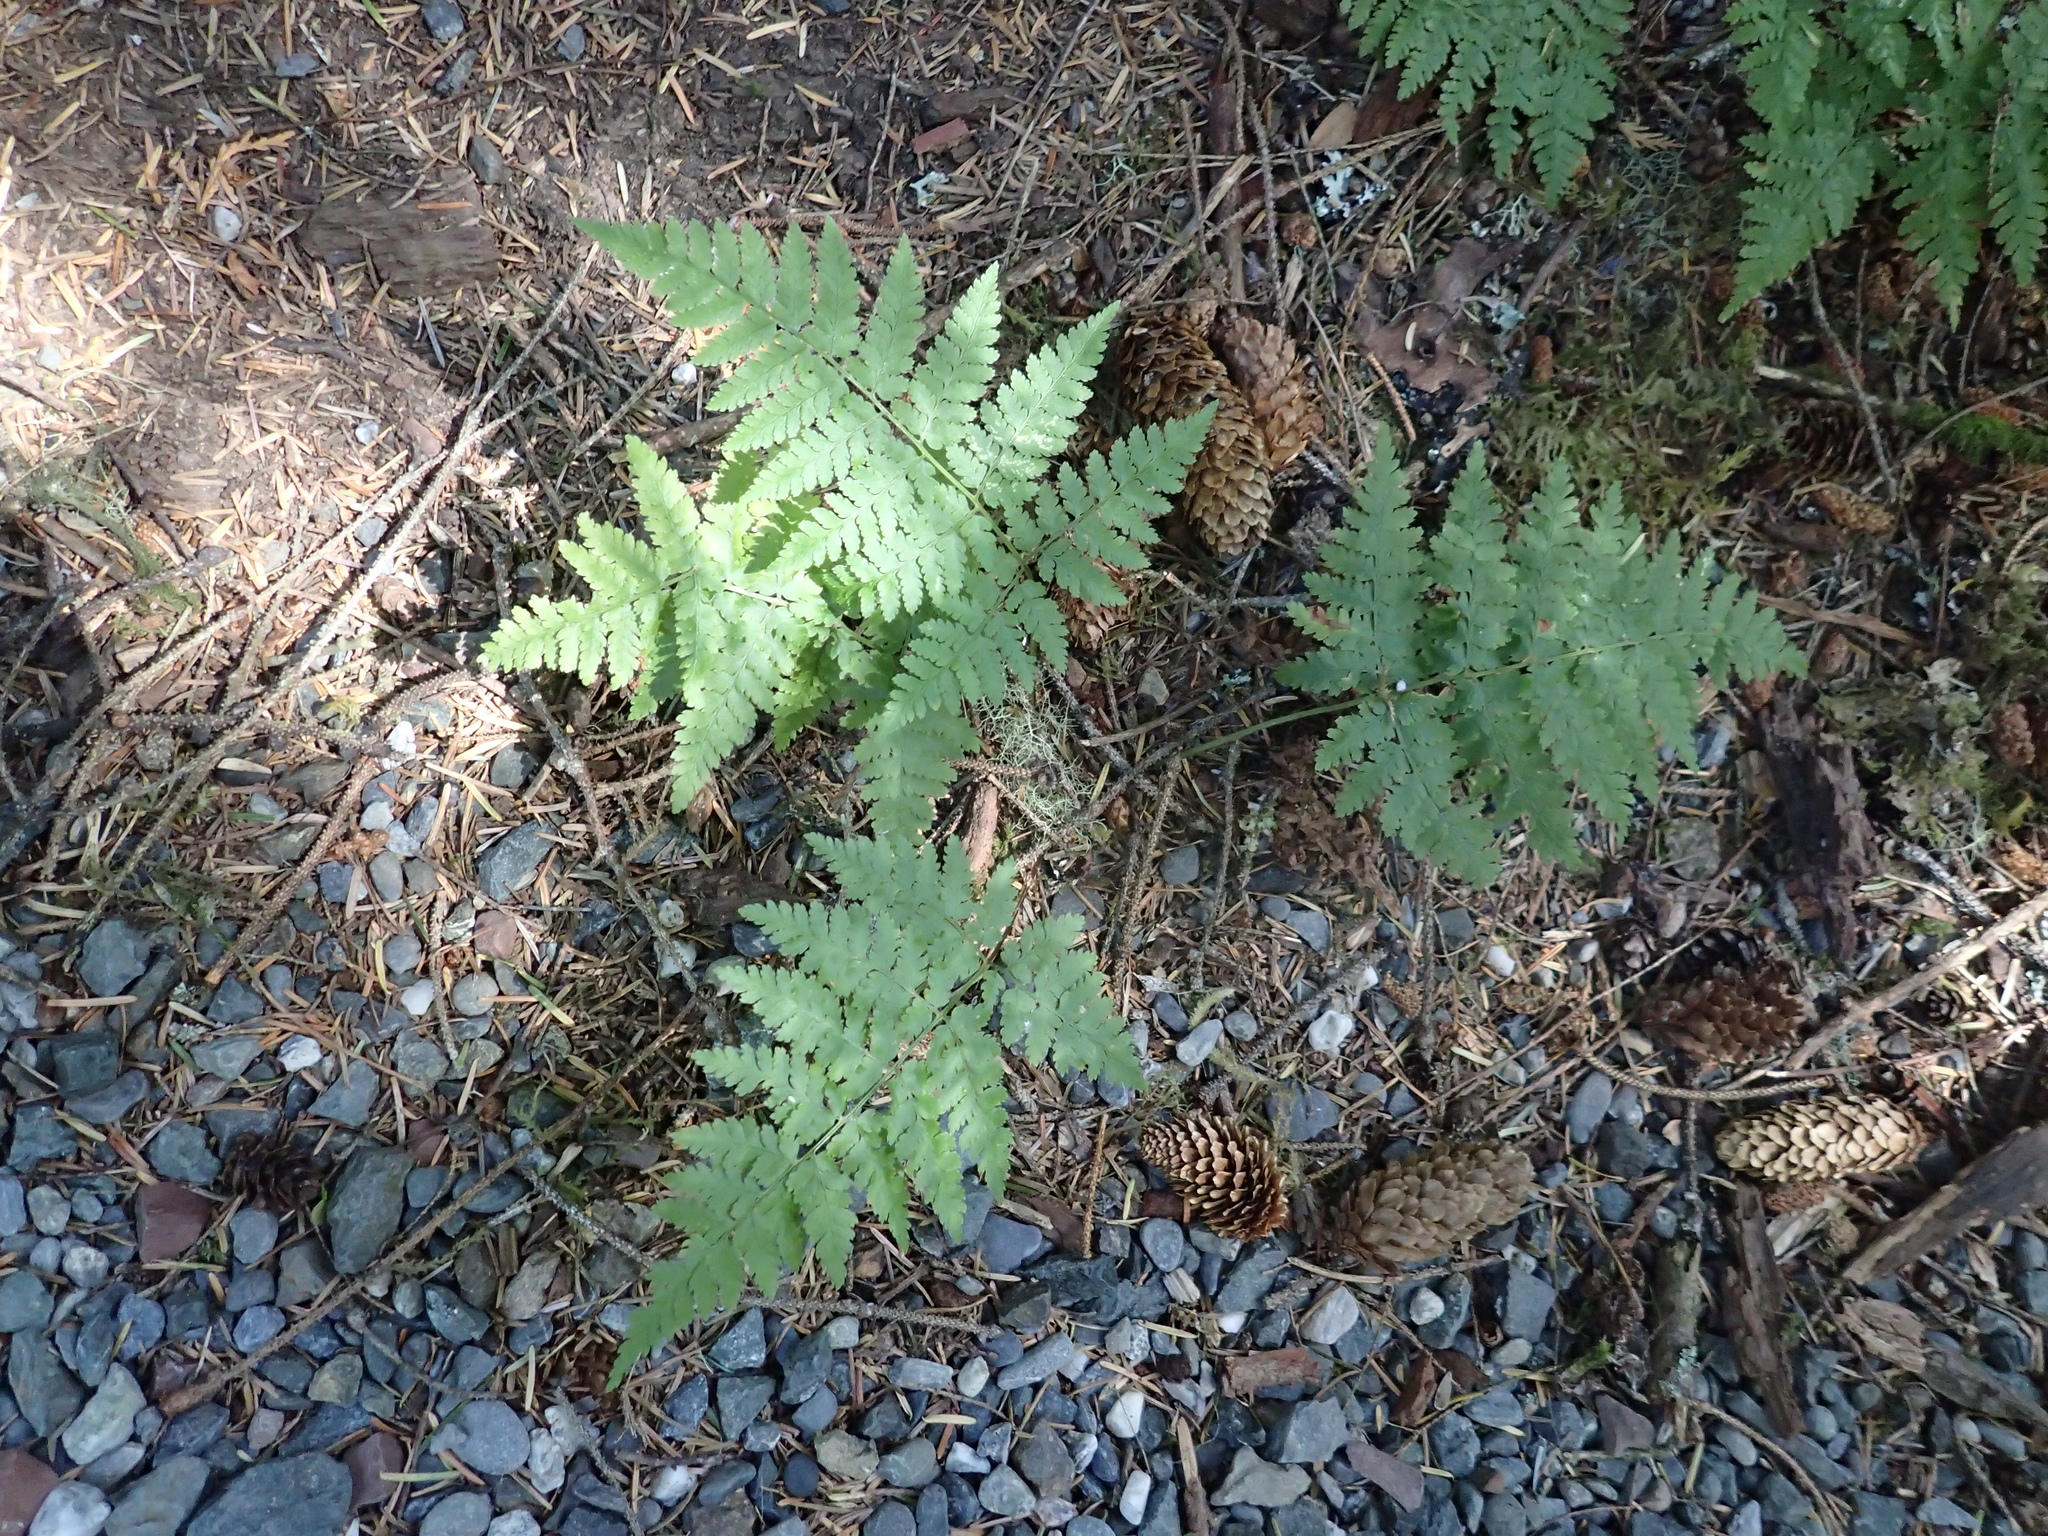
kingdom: Plantae
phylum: Tracheophyta
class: Polypodiopsida
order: Polypodiales
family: Dryopteridaceae
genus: Dryopteris
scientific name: Dryopteris expansa
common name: Northern buckler fern
